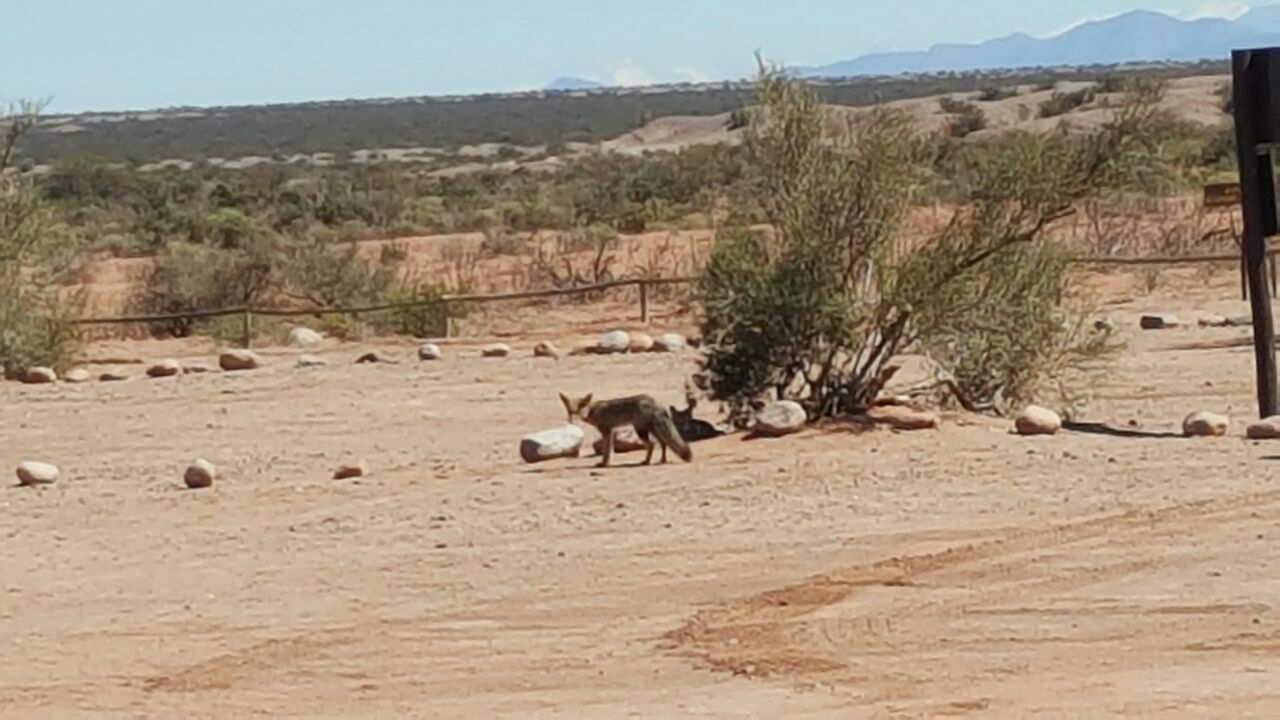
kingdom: Animalia
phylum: Chordata
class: Mammalia
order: Carnivora
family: Canidae
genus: Lycalopex
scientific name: Lycalopex gymnocercus
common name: Pampas fox
